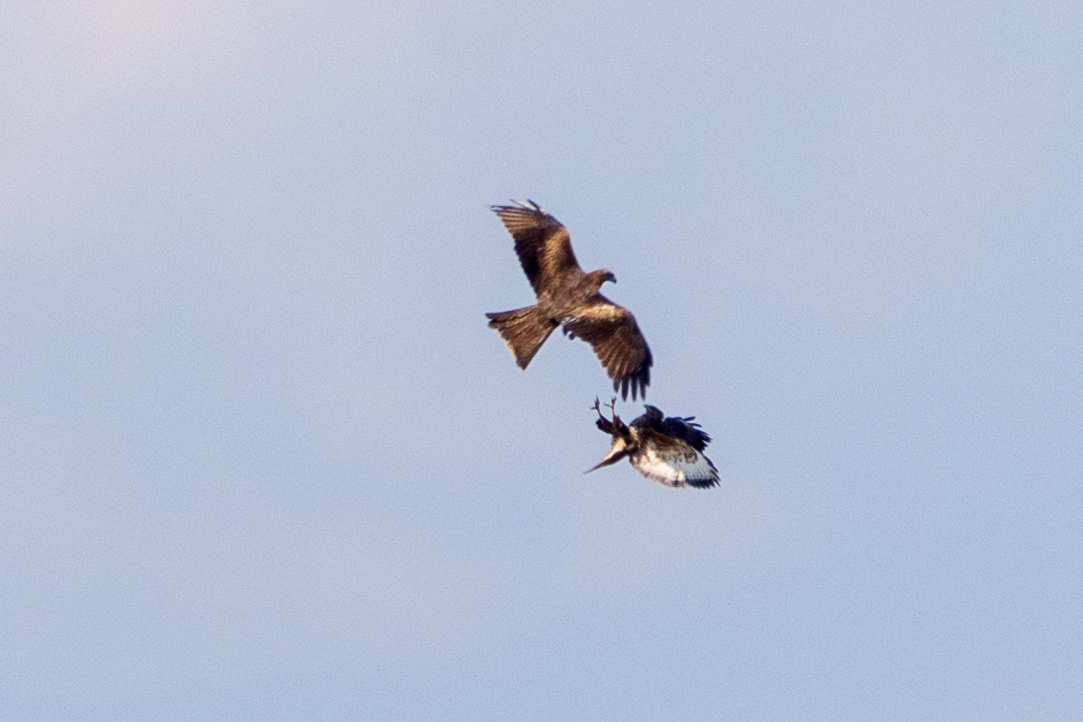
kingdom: Animalia
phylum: Chordata
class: Aves
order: Accipitriformes
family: Accipitridae
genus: Buteo
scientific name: Buteo buteo
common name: Common buzzard
